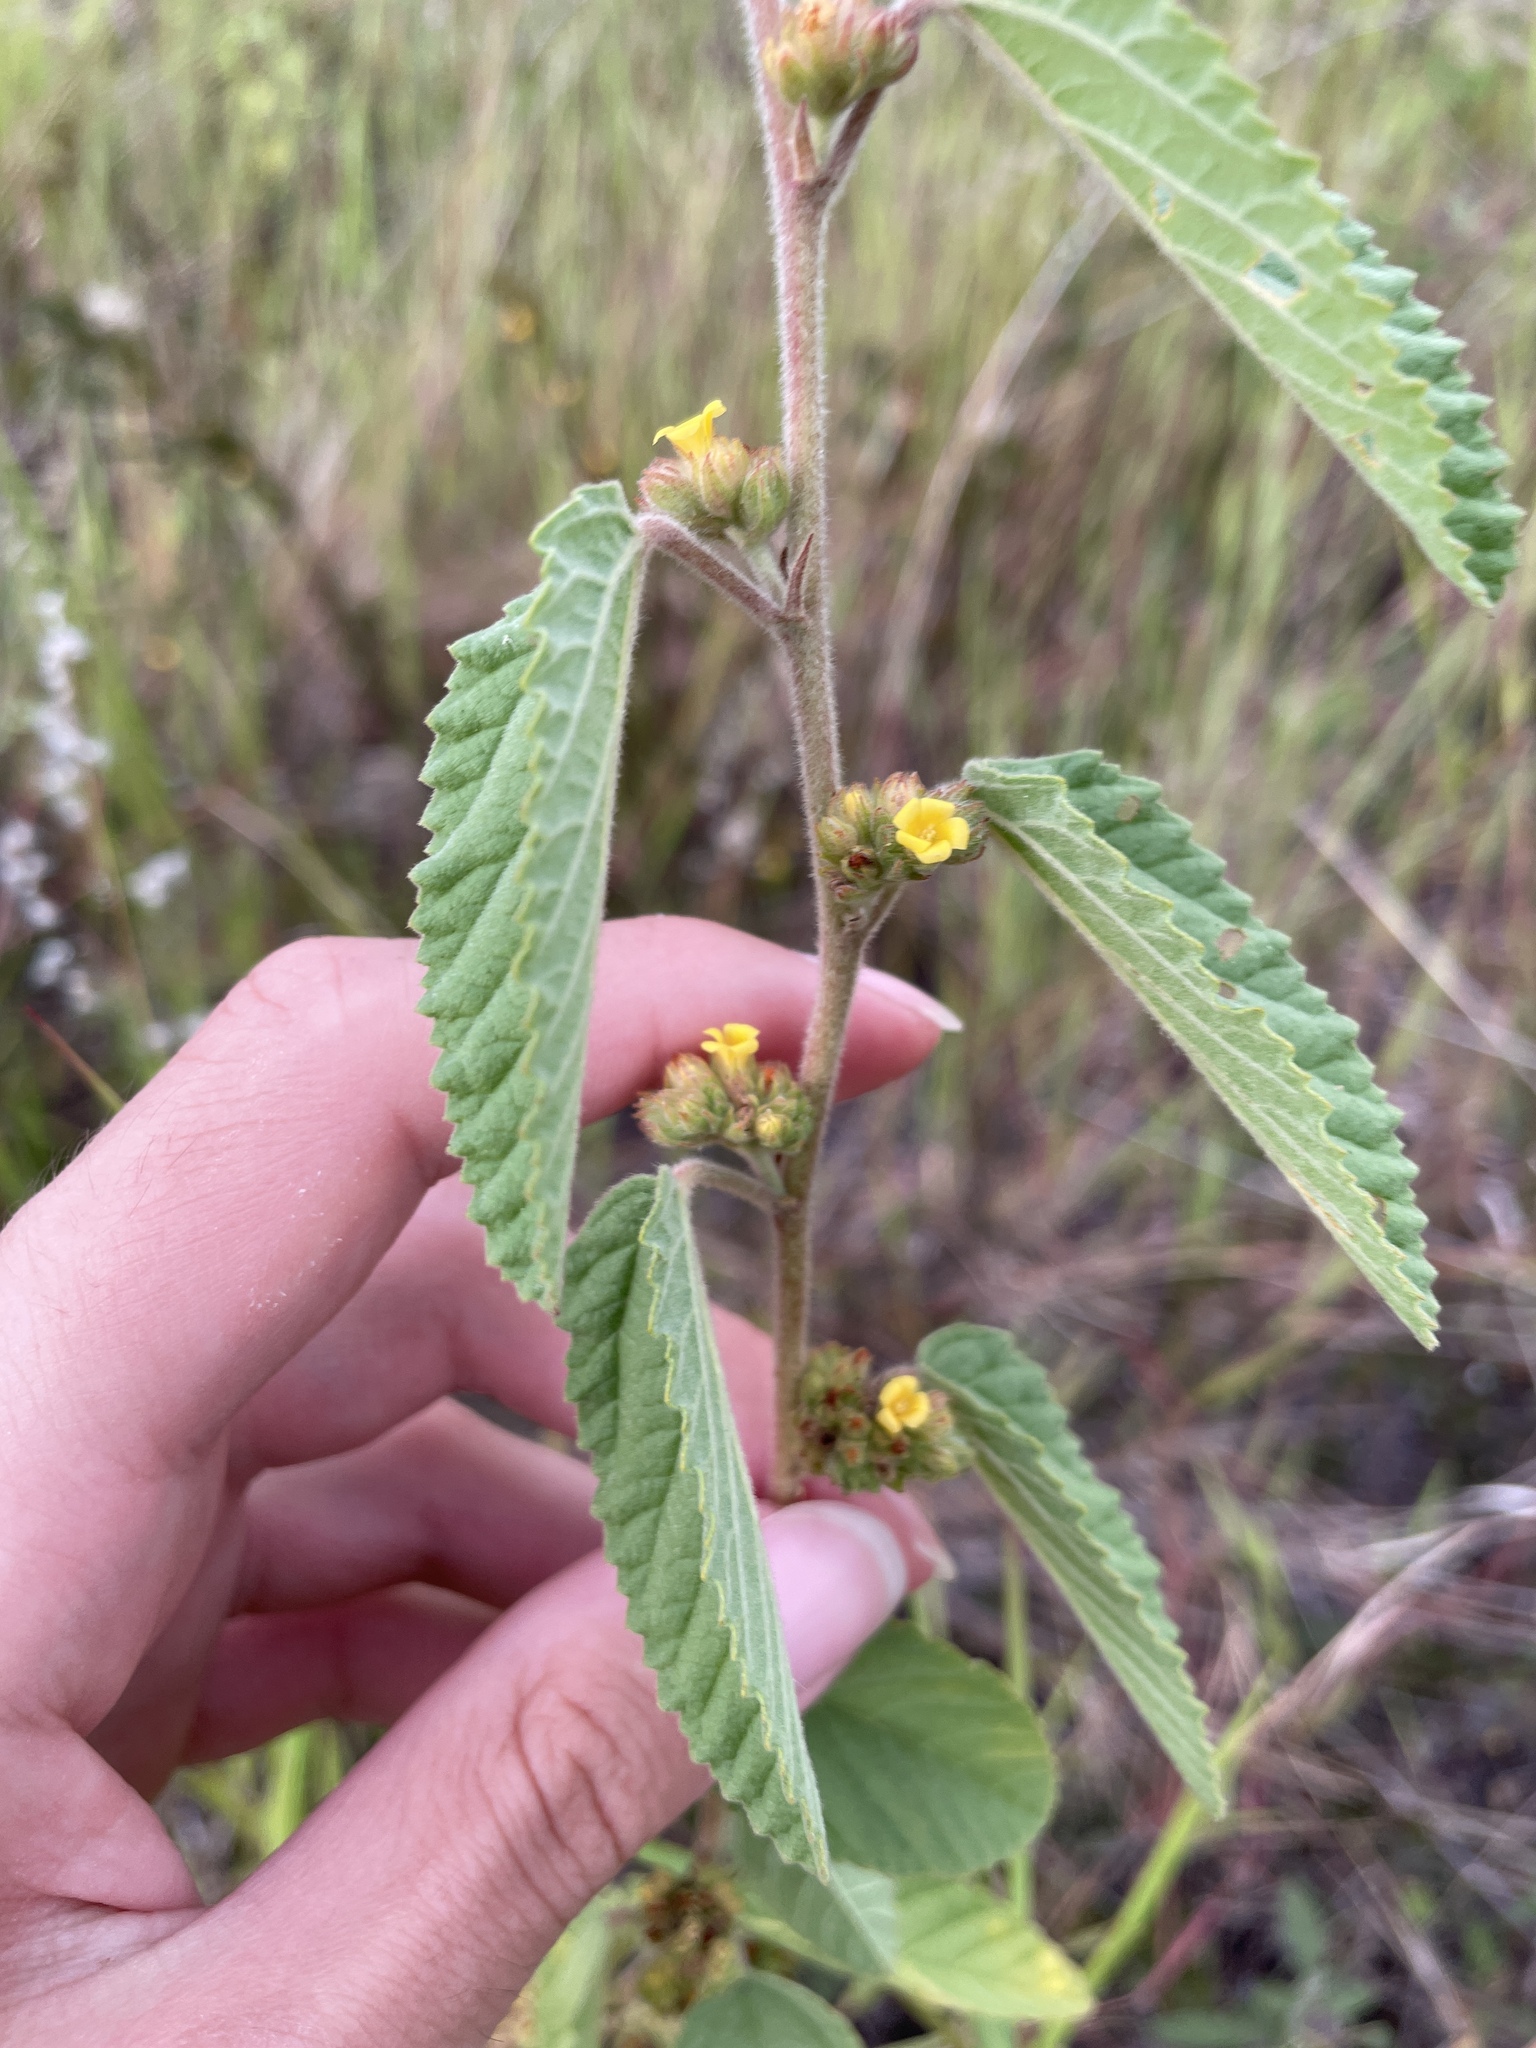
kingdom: Plantae
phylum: Tracheophyta
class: Magnoliopsida
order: Malvales
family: Malvaceae
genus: Waltheria
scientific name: Waltheria indica
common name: Leather-coat
